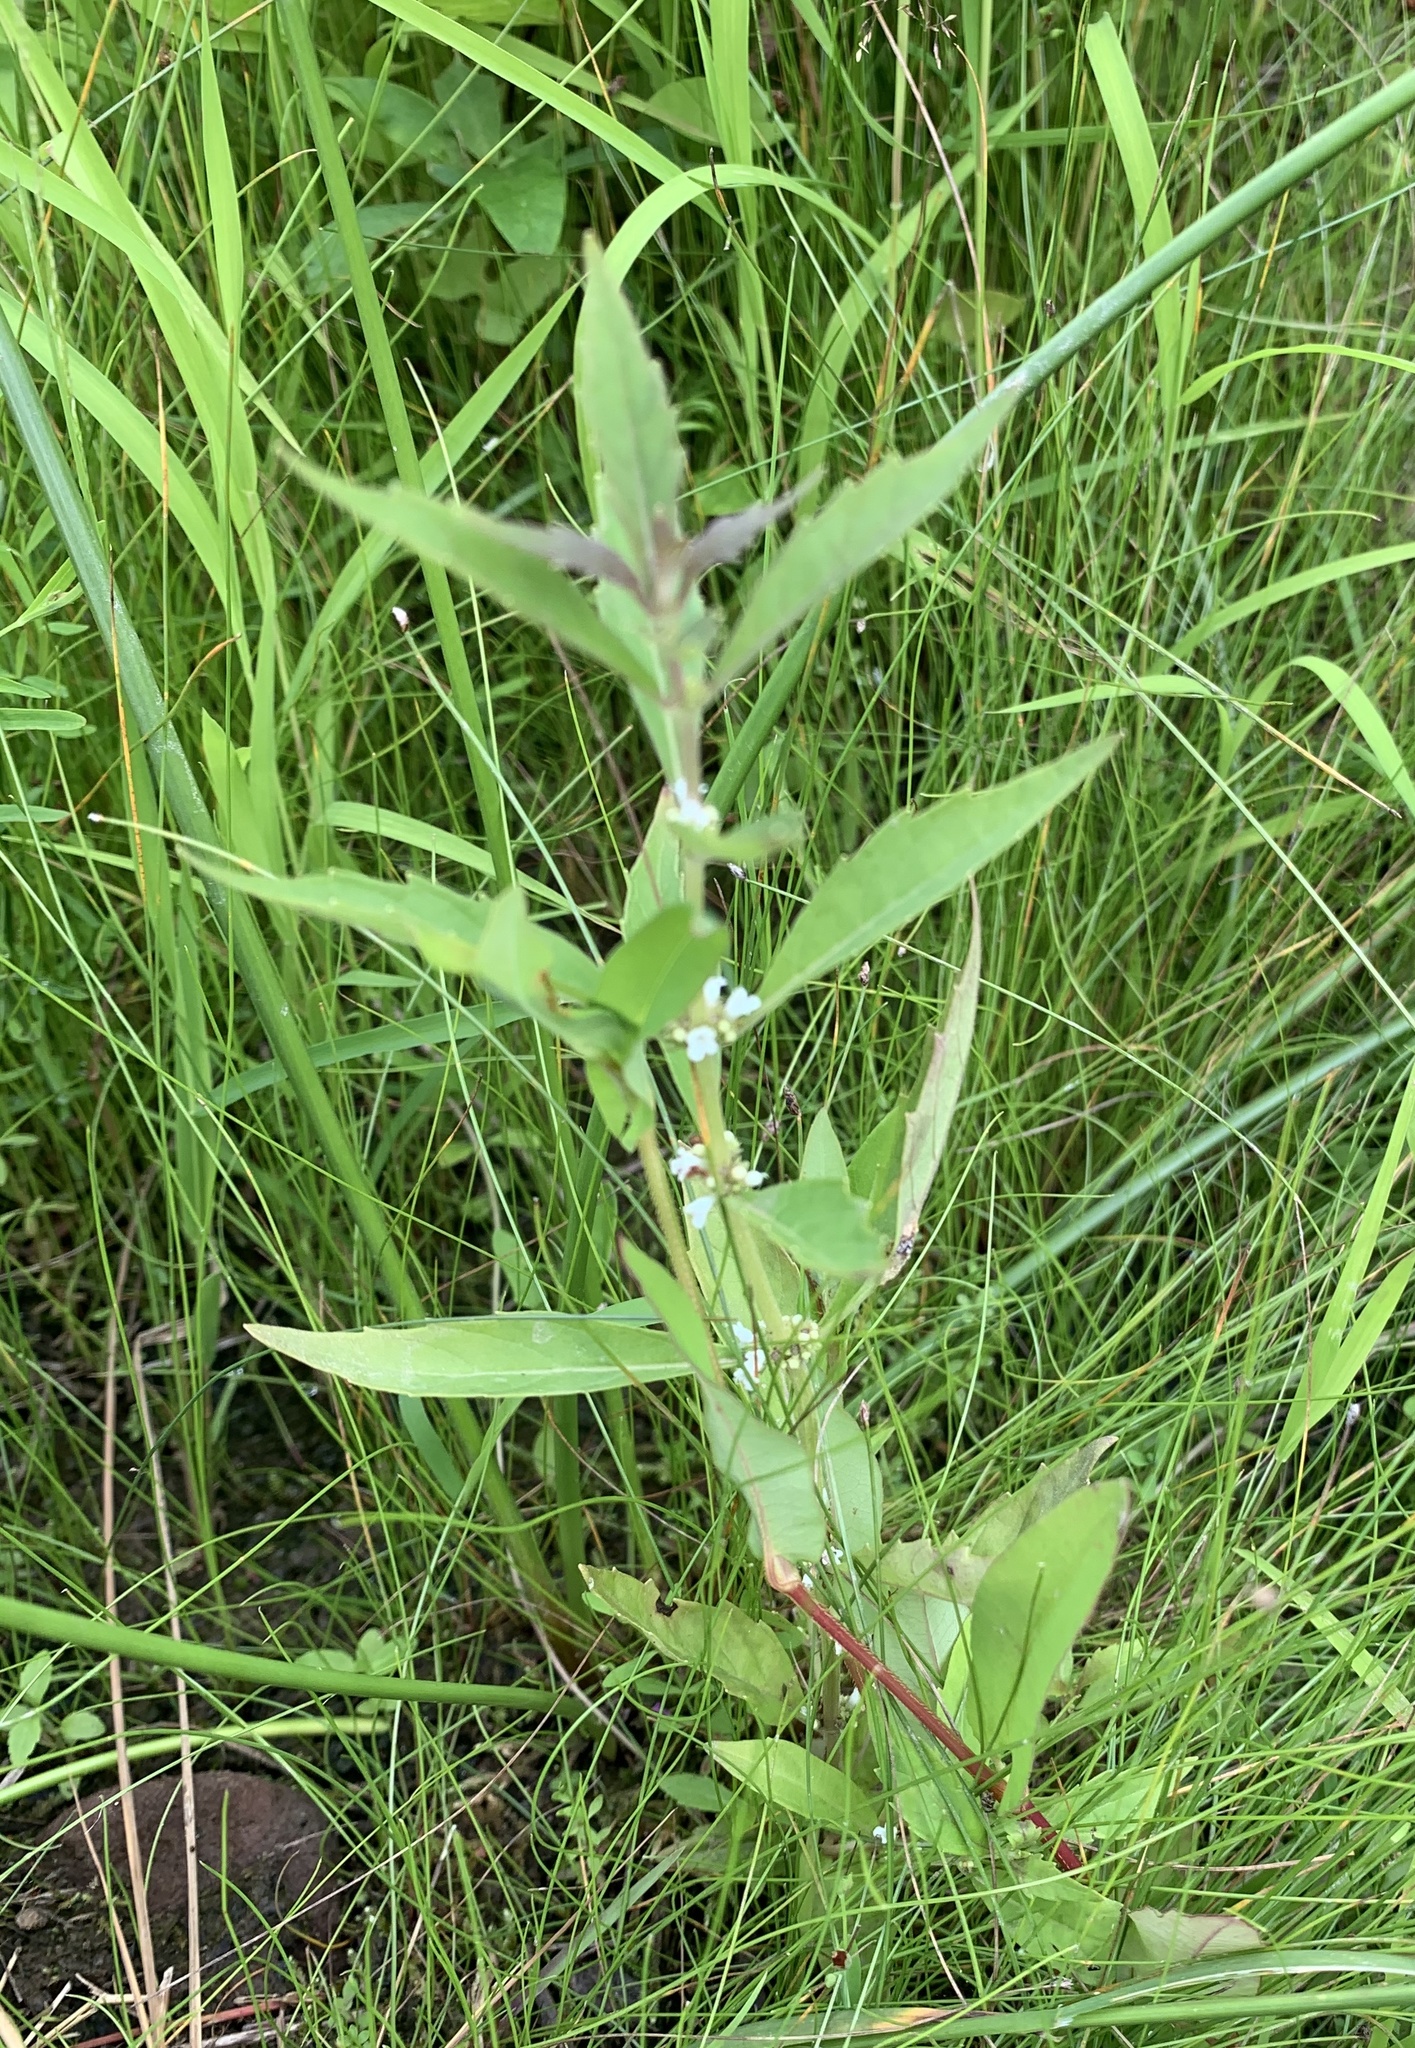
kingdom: Plantae
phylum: Tracheophyta
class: Magnoliopsida
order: Lamiales
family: Lamiaceae
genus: Lycopus
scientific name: Lycopus uniflorus
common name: Northern bugleweed
